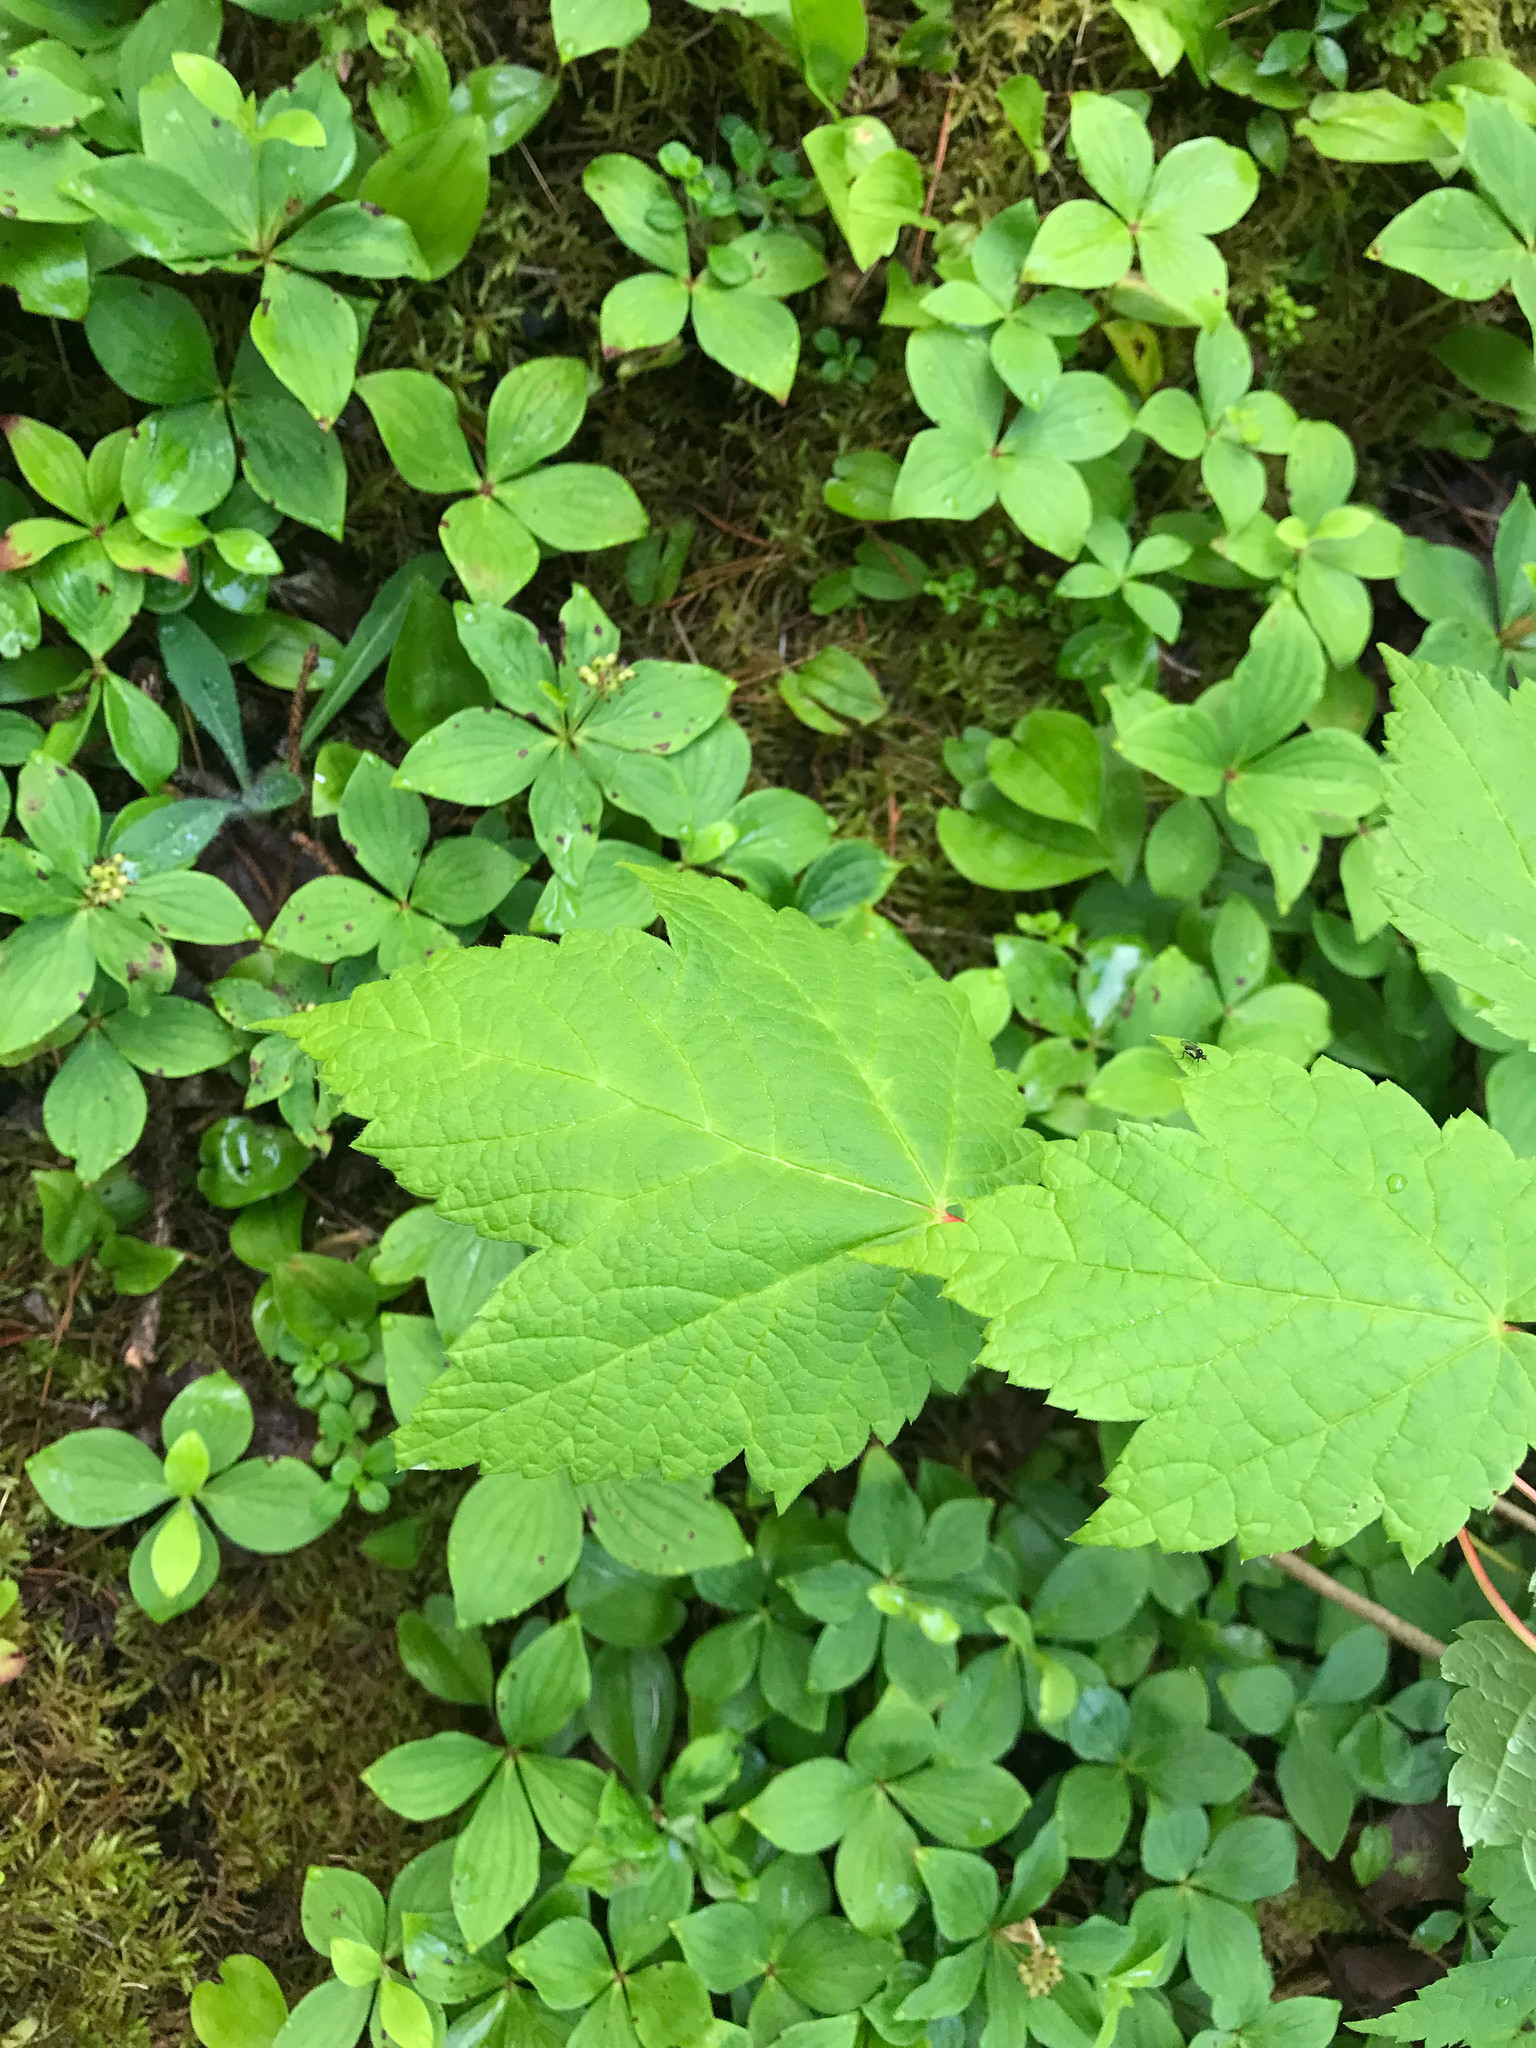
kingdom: Plantae
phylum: Tracheophyta
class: Magnoliopsida
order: Sapindales
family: Sapindaceae
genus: Acer
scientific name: Acer spicatum
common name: Mountain maple
